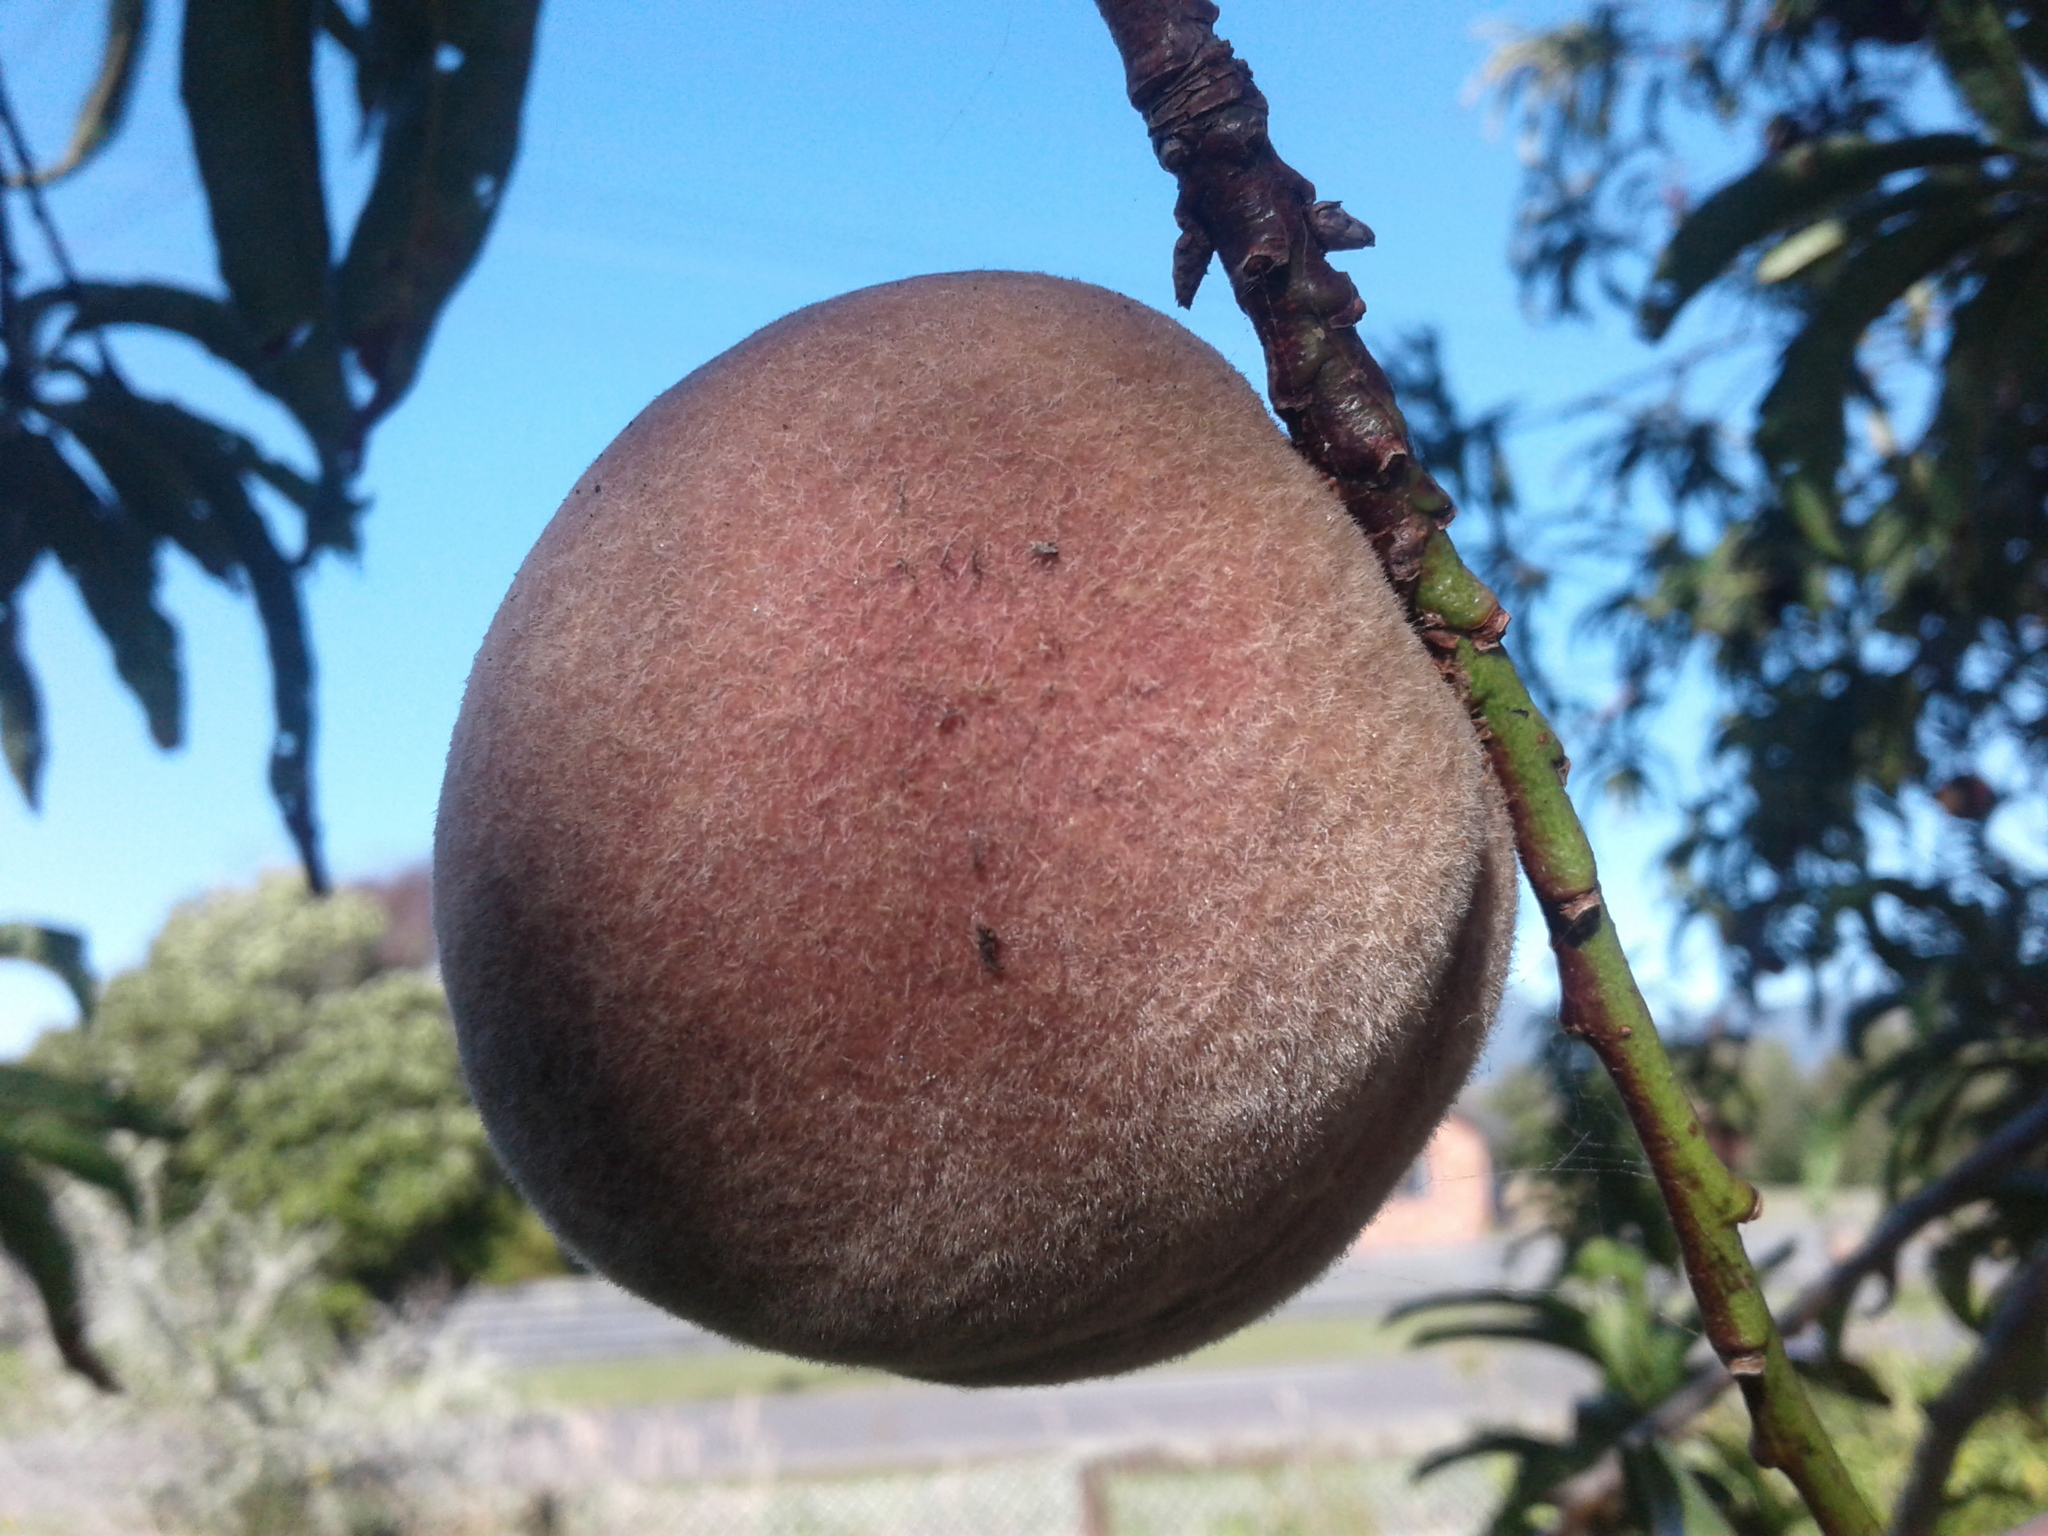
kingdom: Plantae
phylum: Tracheophyta
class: Magnoliopsida
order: Rosales
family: Rosaceae
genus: Prunus
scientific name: Prunus persica
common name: Peach
